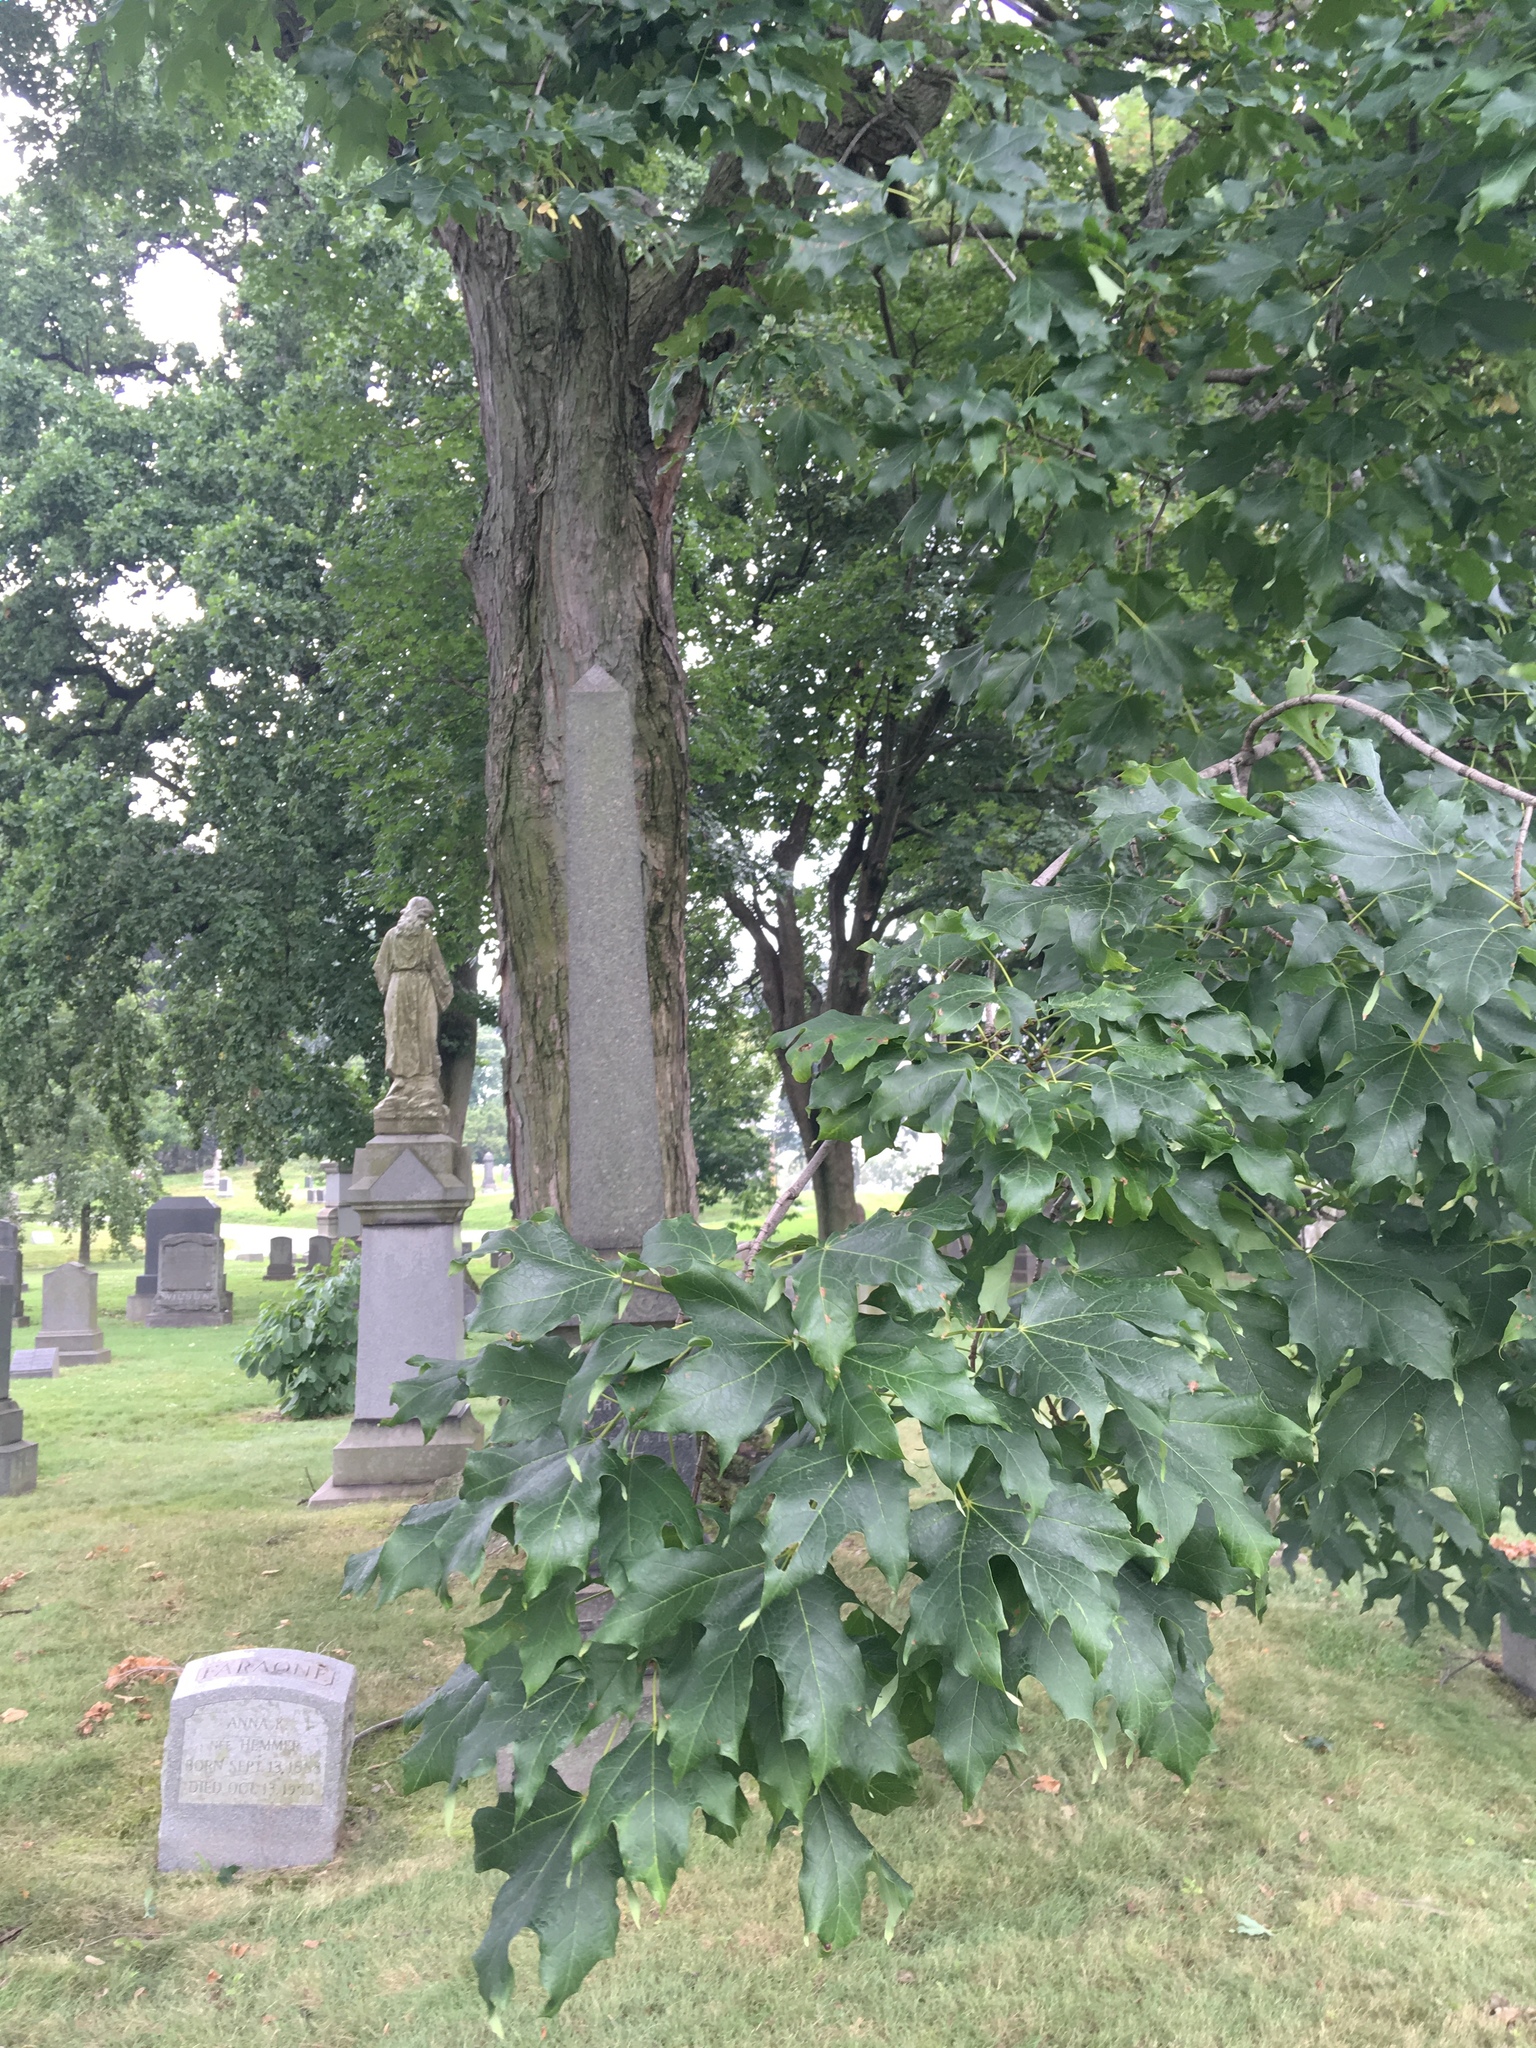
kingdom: Plantae
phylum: Tracheophyta
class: Magnoliopsida
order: Sapindales
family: Sapindaceae
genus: Acer
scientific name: Acer saccharum
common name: Sugar maple
